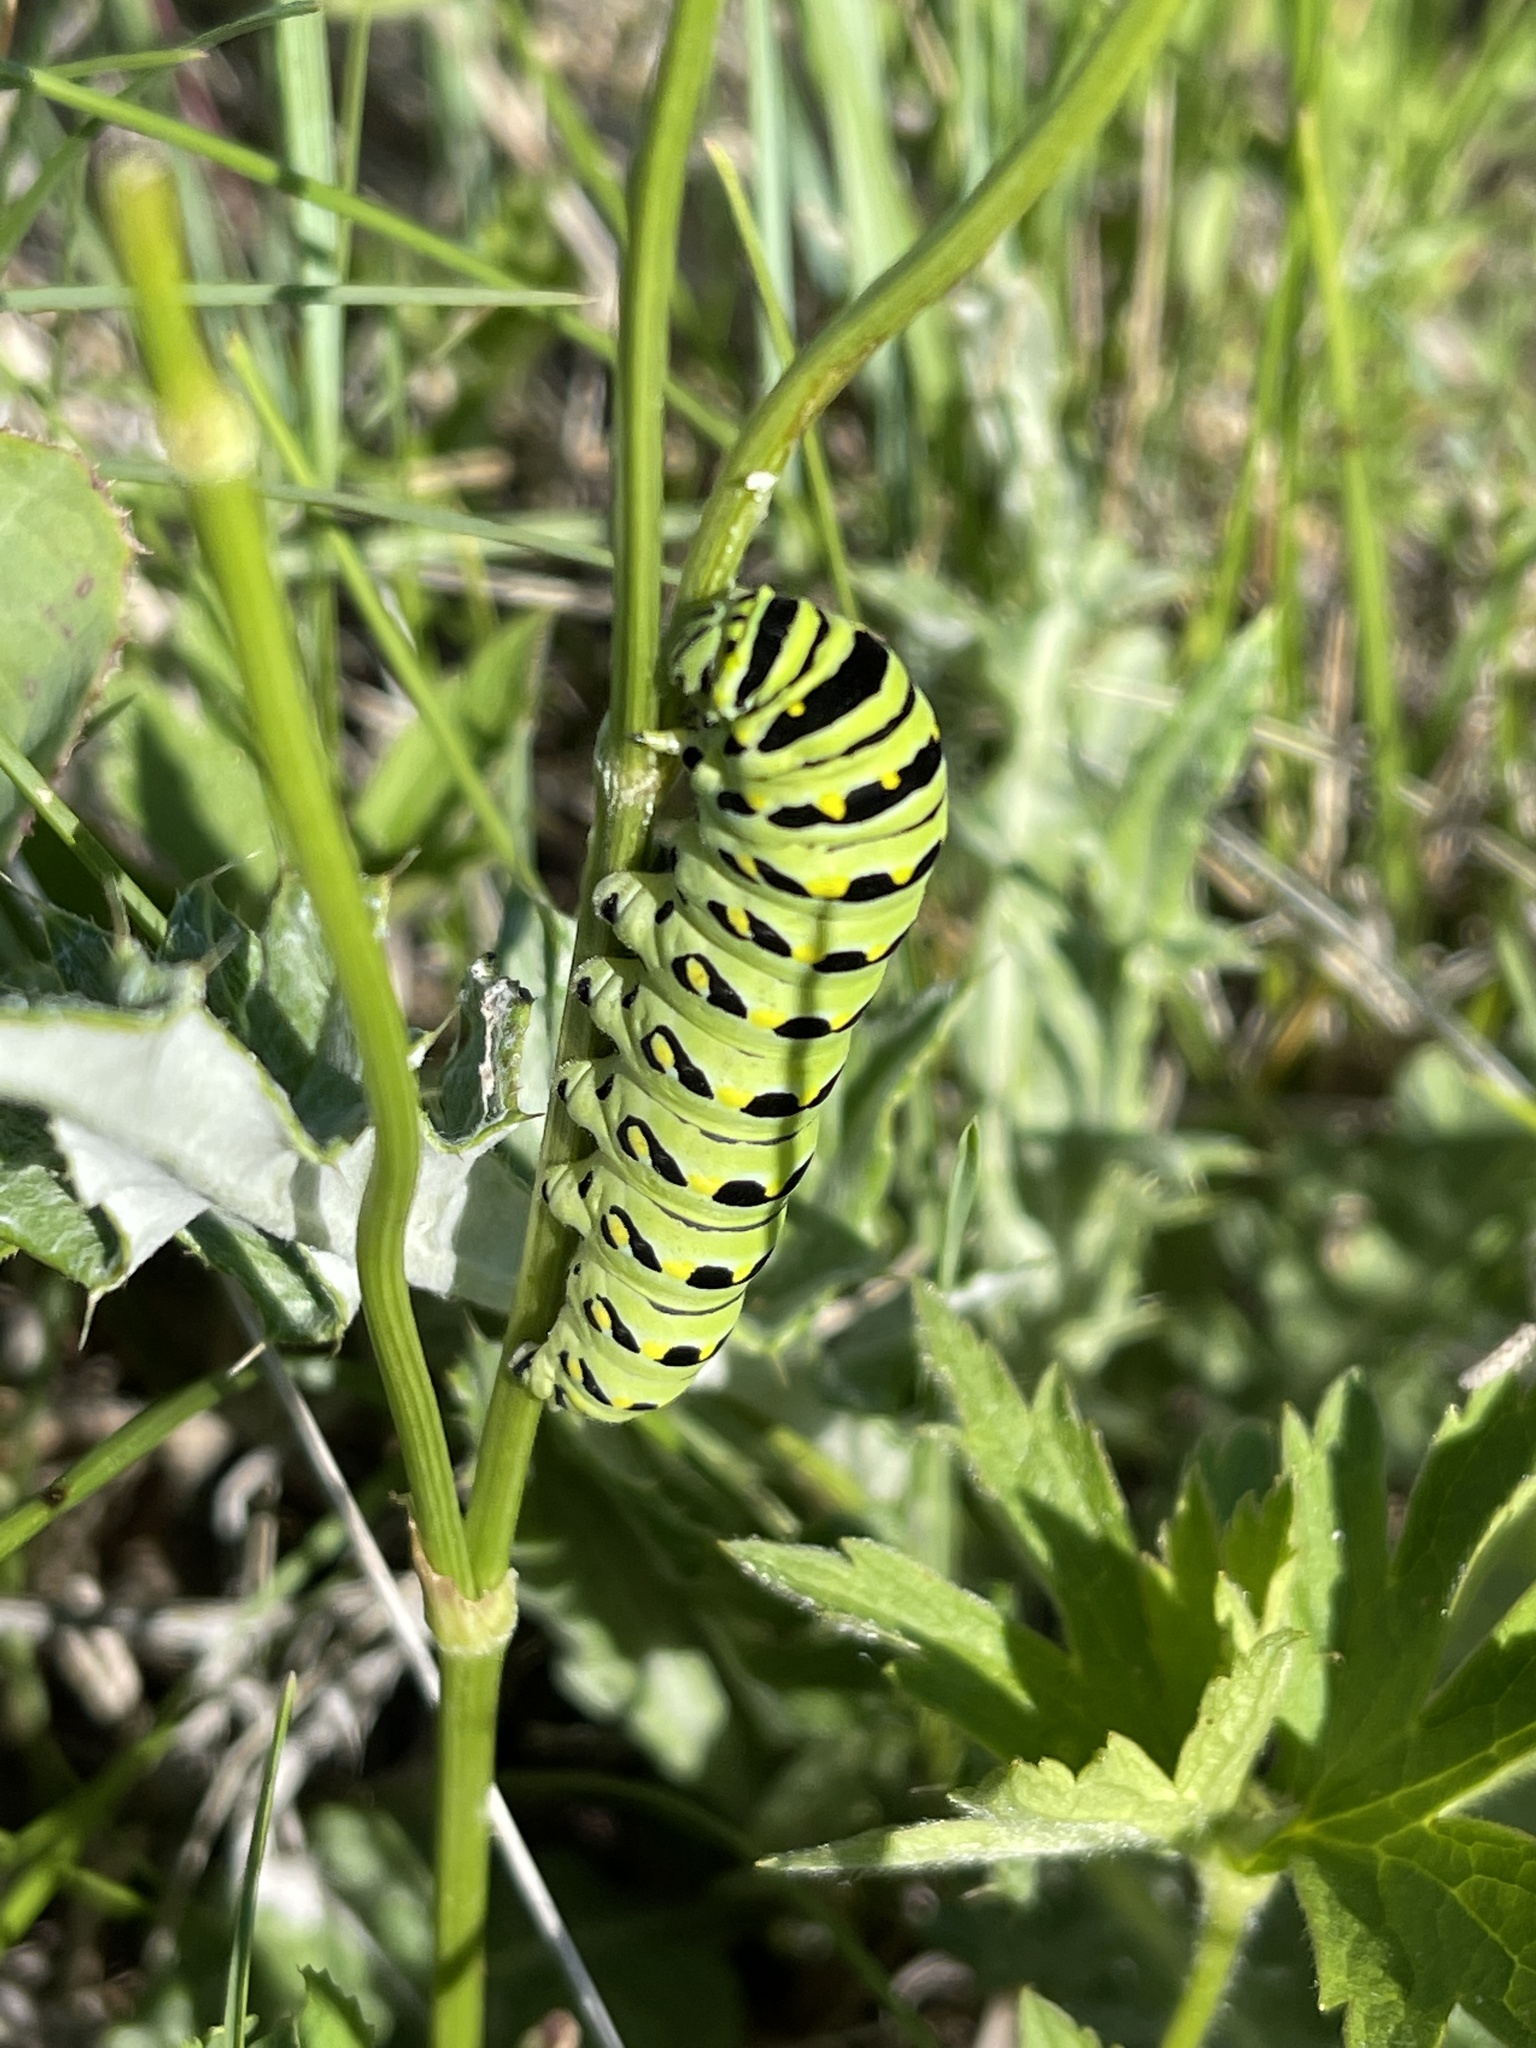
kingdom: Animalia
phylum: Arthropoda
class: Insecta
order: Lepidoptera
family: Papilionidae
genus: Papilio
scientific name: Papilio polyxenes
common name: Black swallowtail
